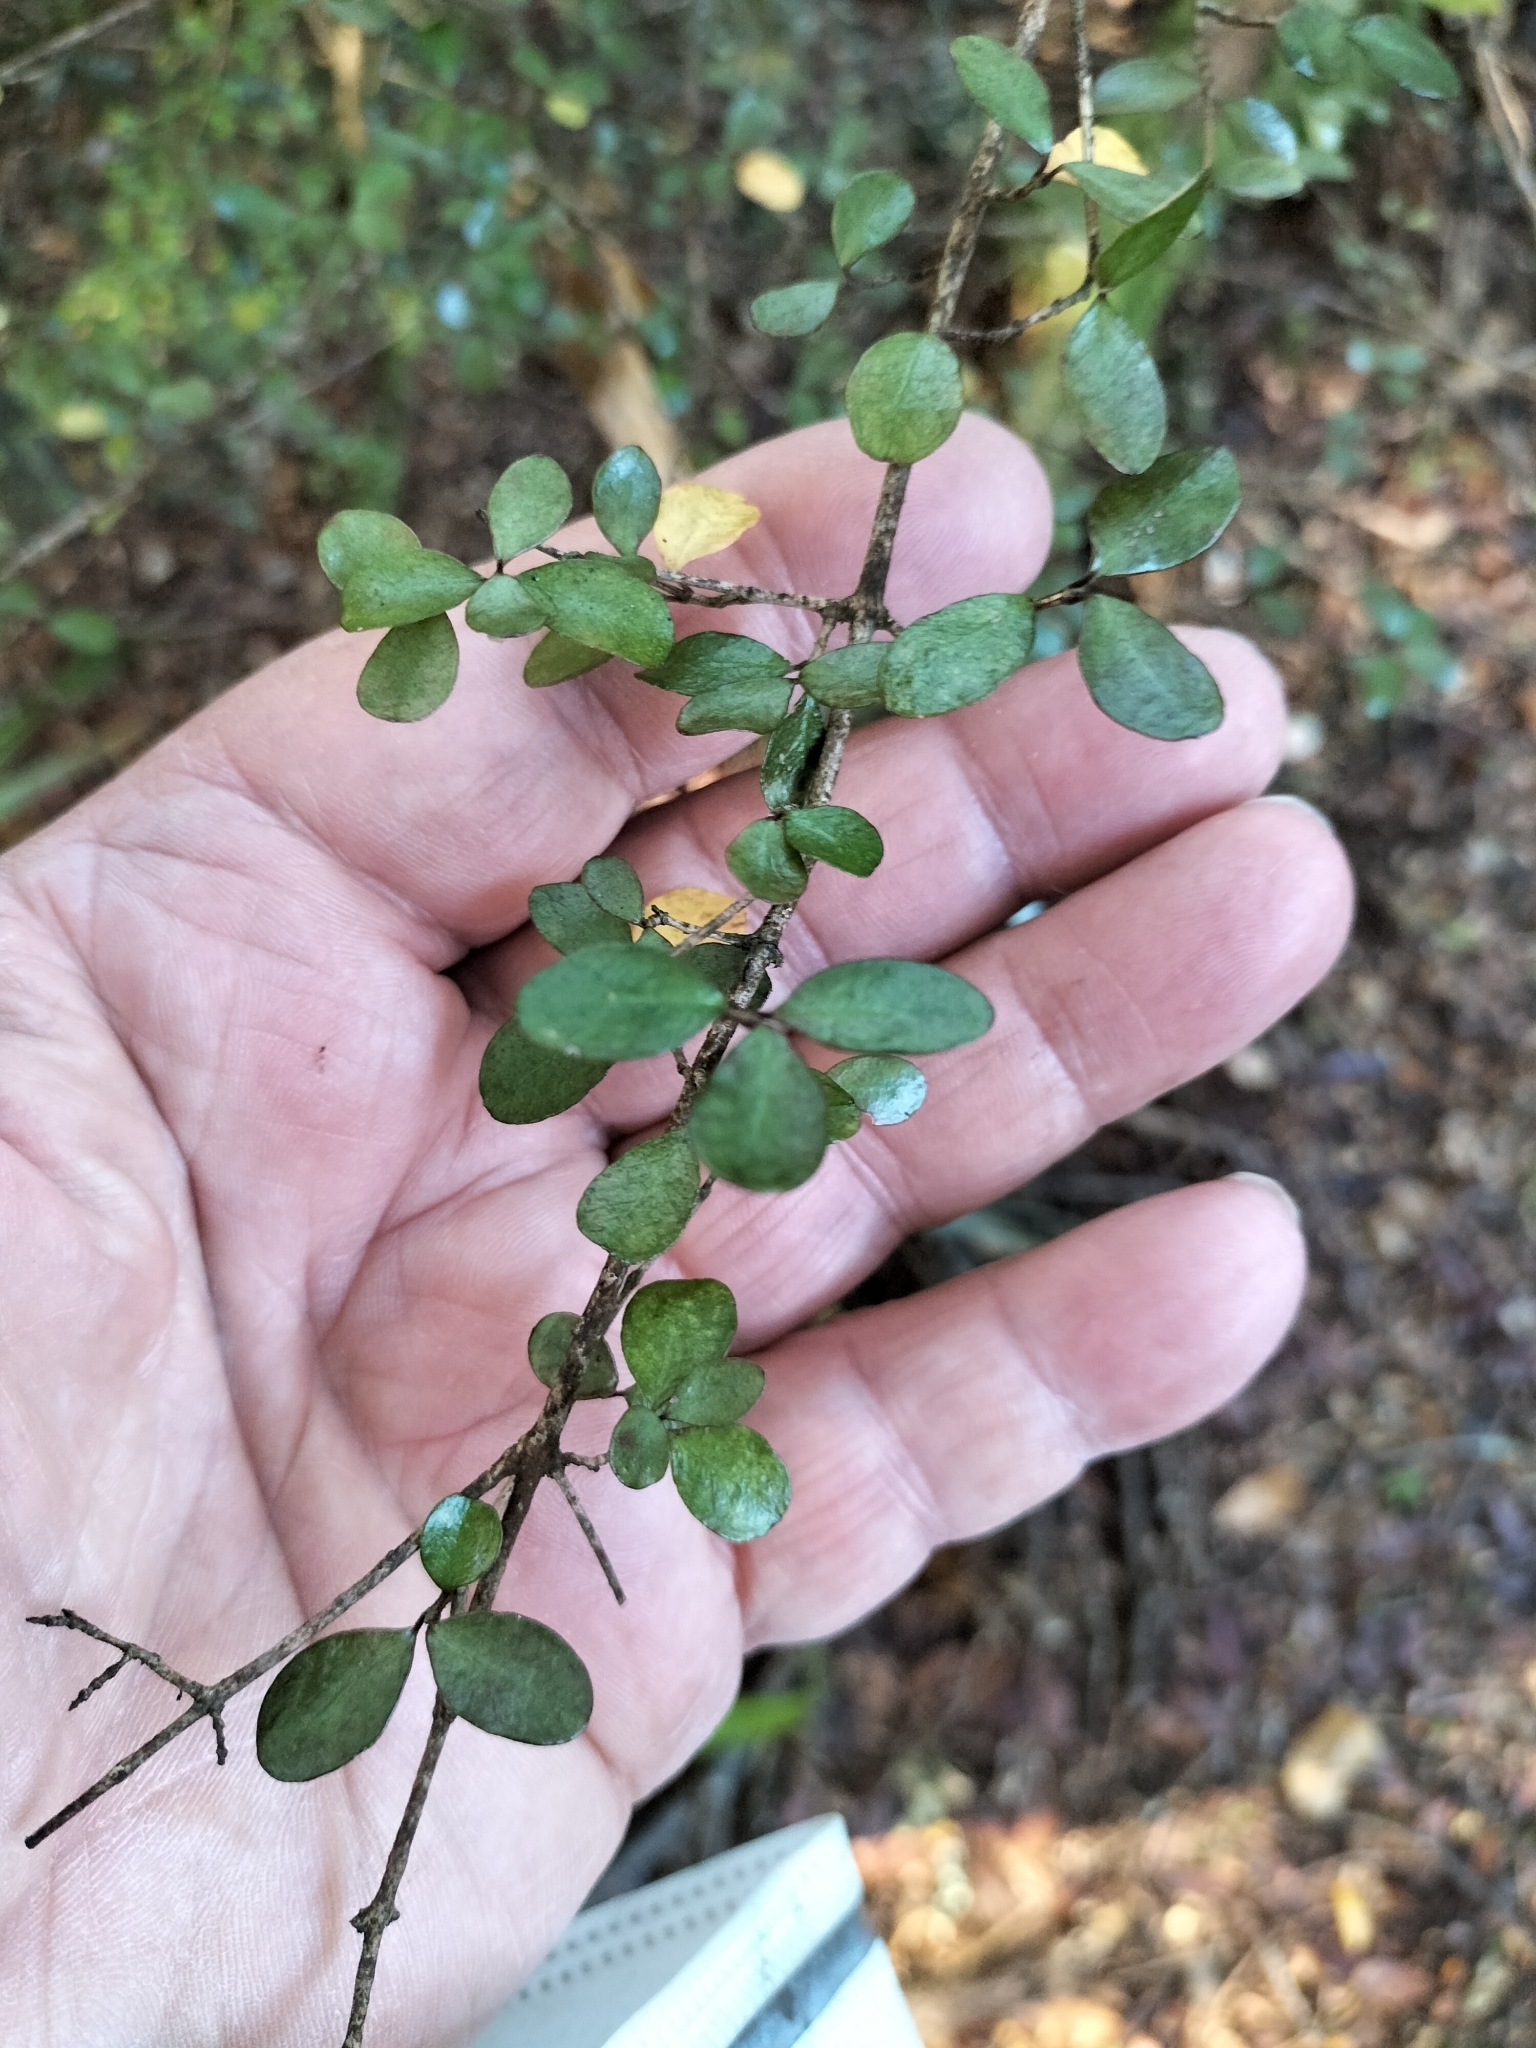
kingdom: Plantae
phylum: Tracheophyta
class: Magnoliopsida
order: Myrtales
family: Myrtaceae
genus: Neomyrtus
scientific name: Neomyrtus pedunculata
